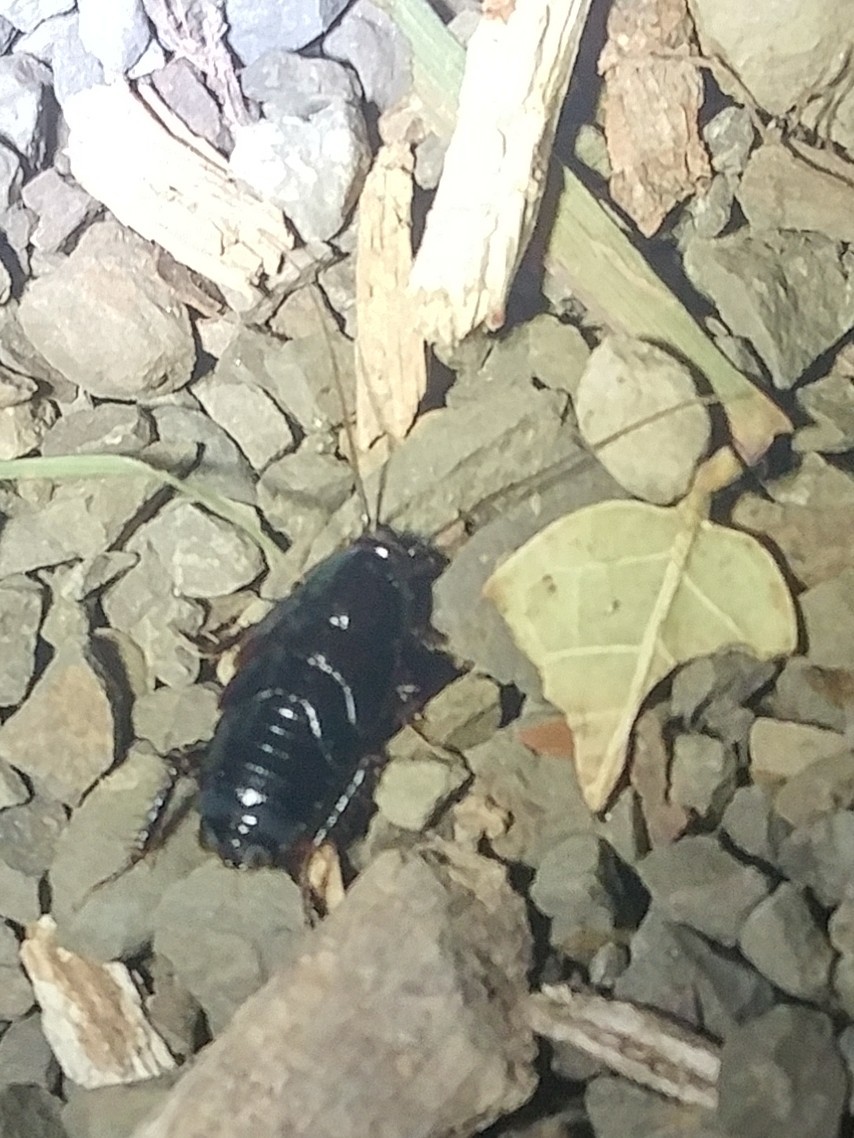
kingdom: Animalia
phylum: Arthropoda
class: Insecta
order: Blattodea
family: Ectobiidae
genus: Parcoblatta
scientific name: Parcoblatta americana
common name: Western wood cockroach
